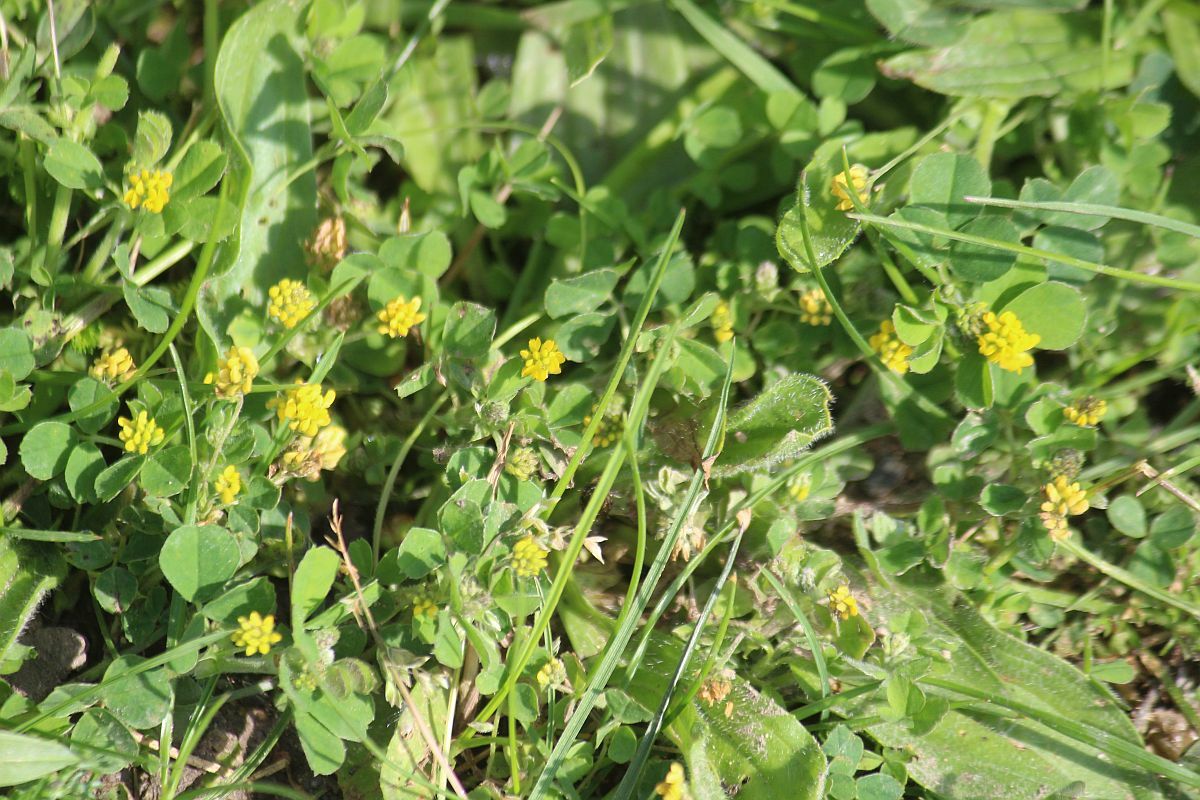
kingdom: Plantae
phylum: Tracheophyta
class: Magnoliopsida
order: Fabales
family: Fabaceae
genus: Medicago
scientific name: Medicago lupulina
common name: Black medick
